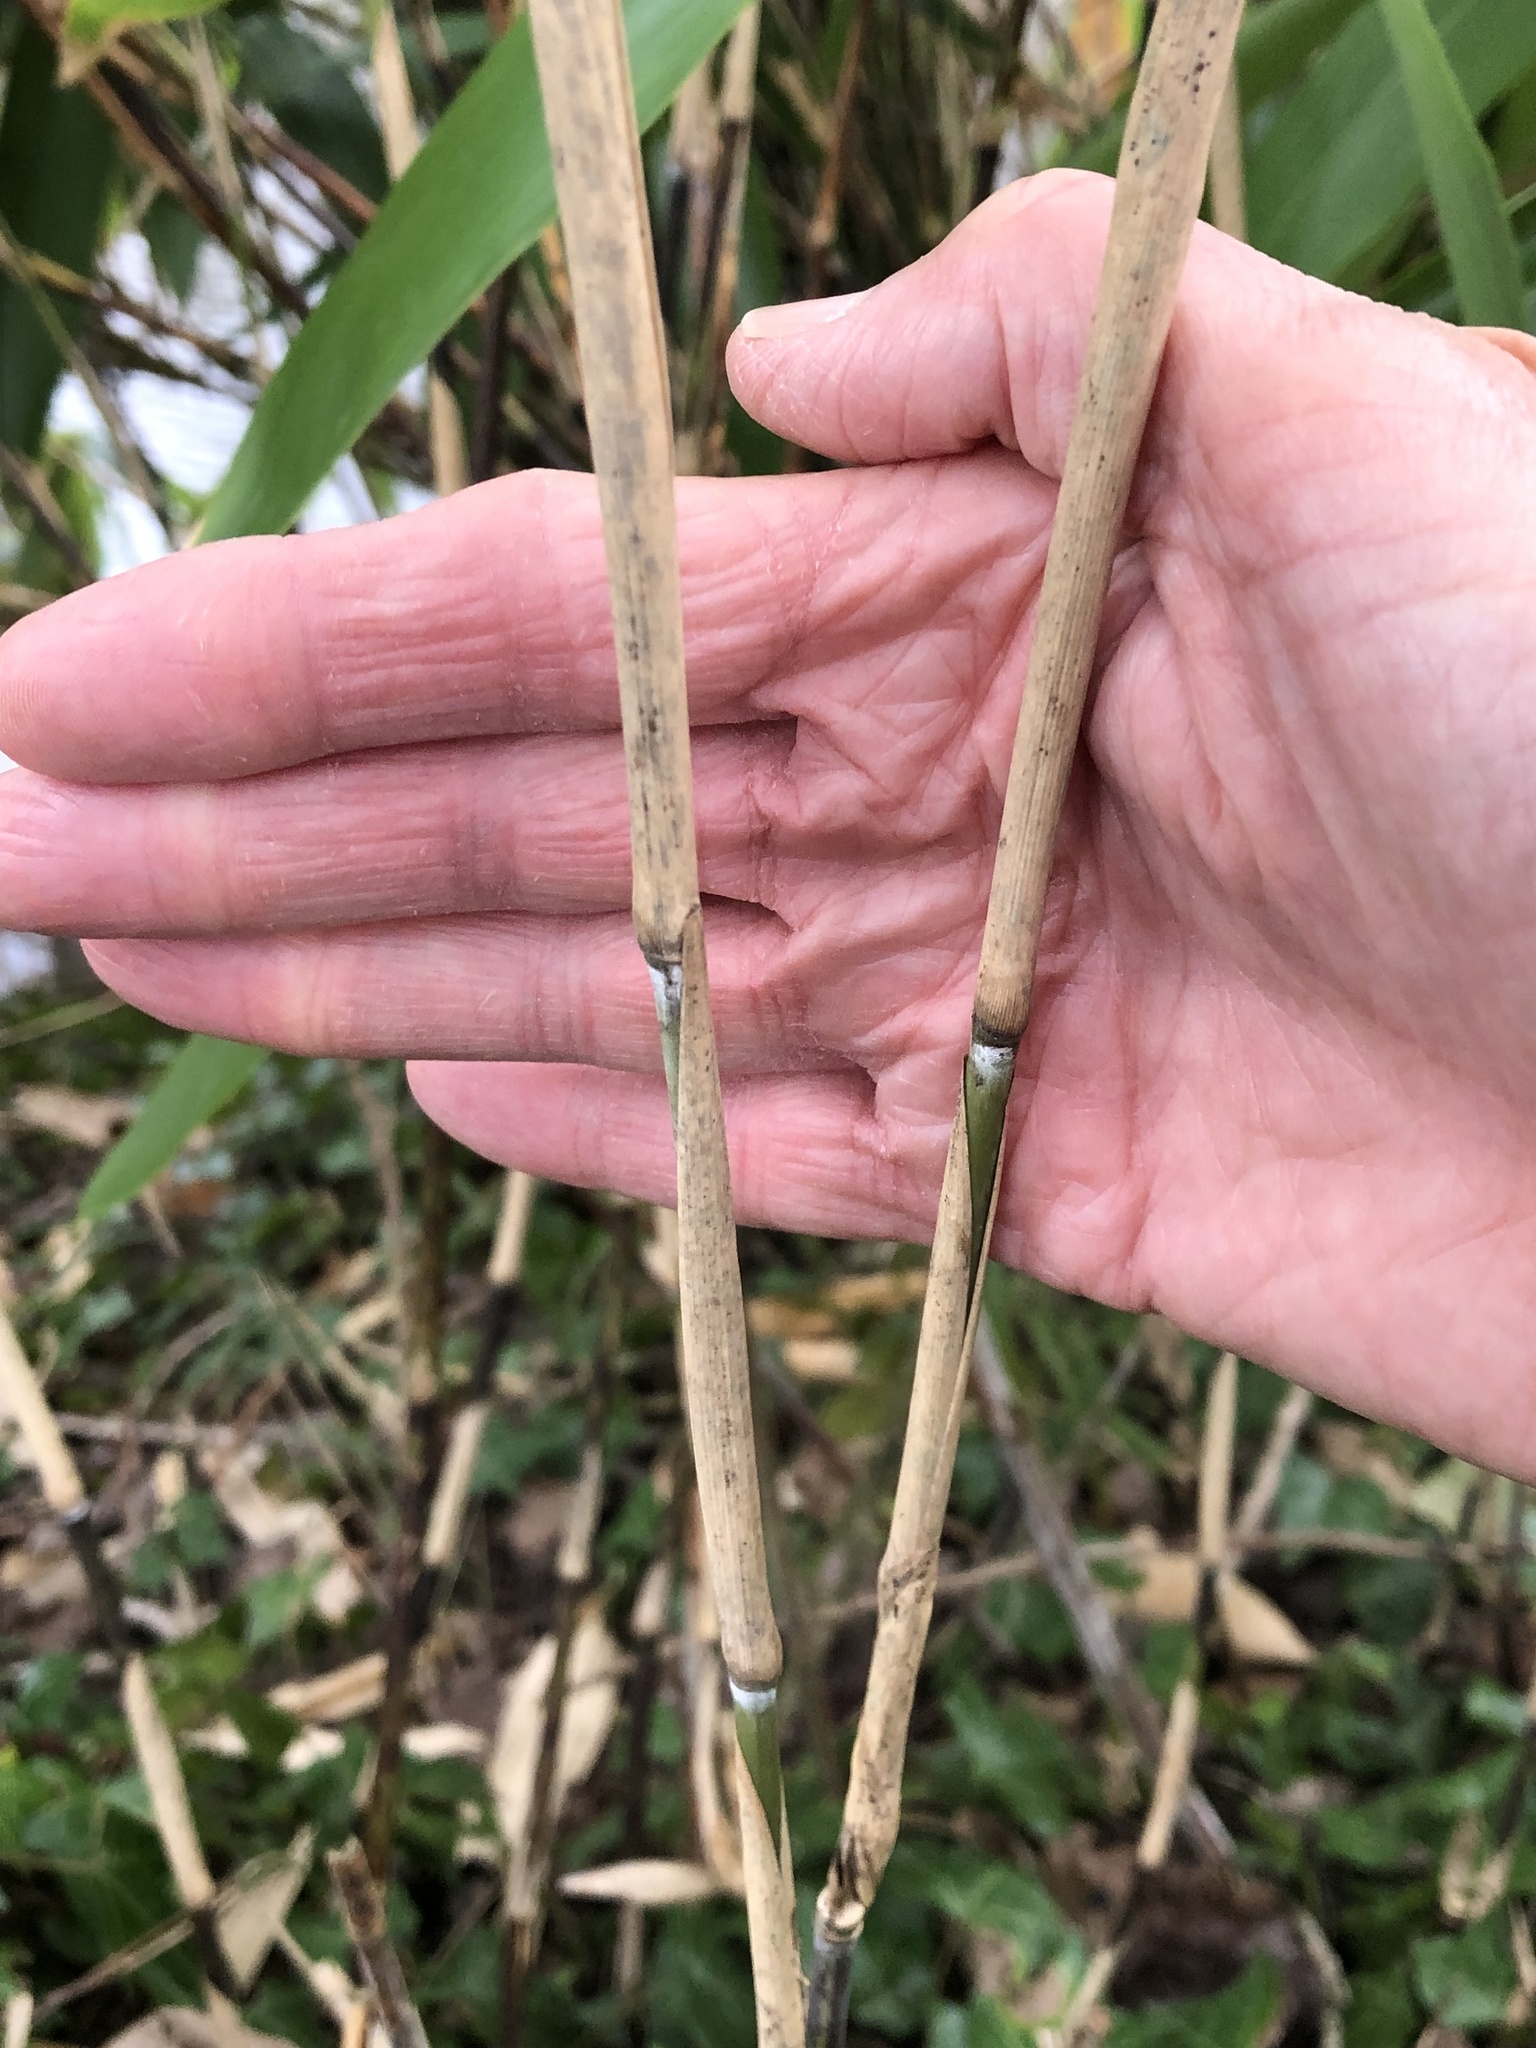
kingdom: Plantae
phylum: Tracheophyta
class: Liliopsida
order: Poales
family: Poaceae
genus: Sasa
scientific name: Sasa palmata
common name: Broad-leaved bamboo
